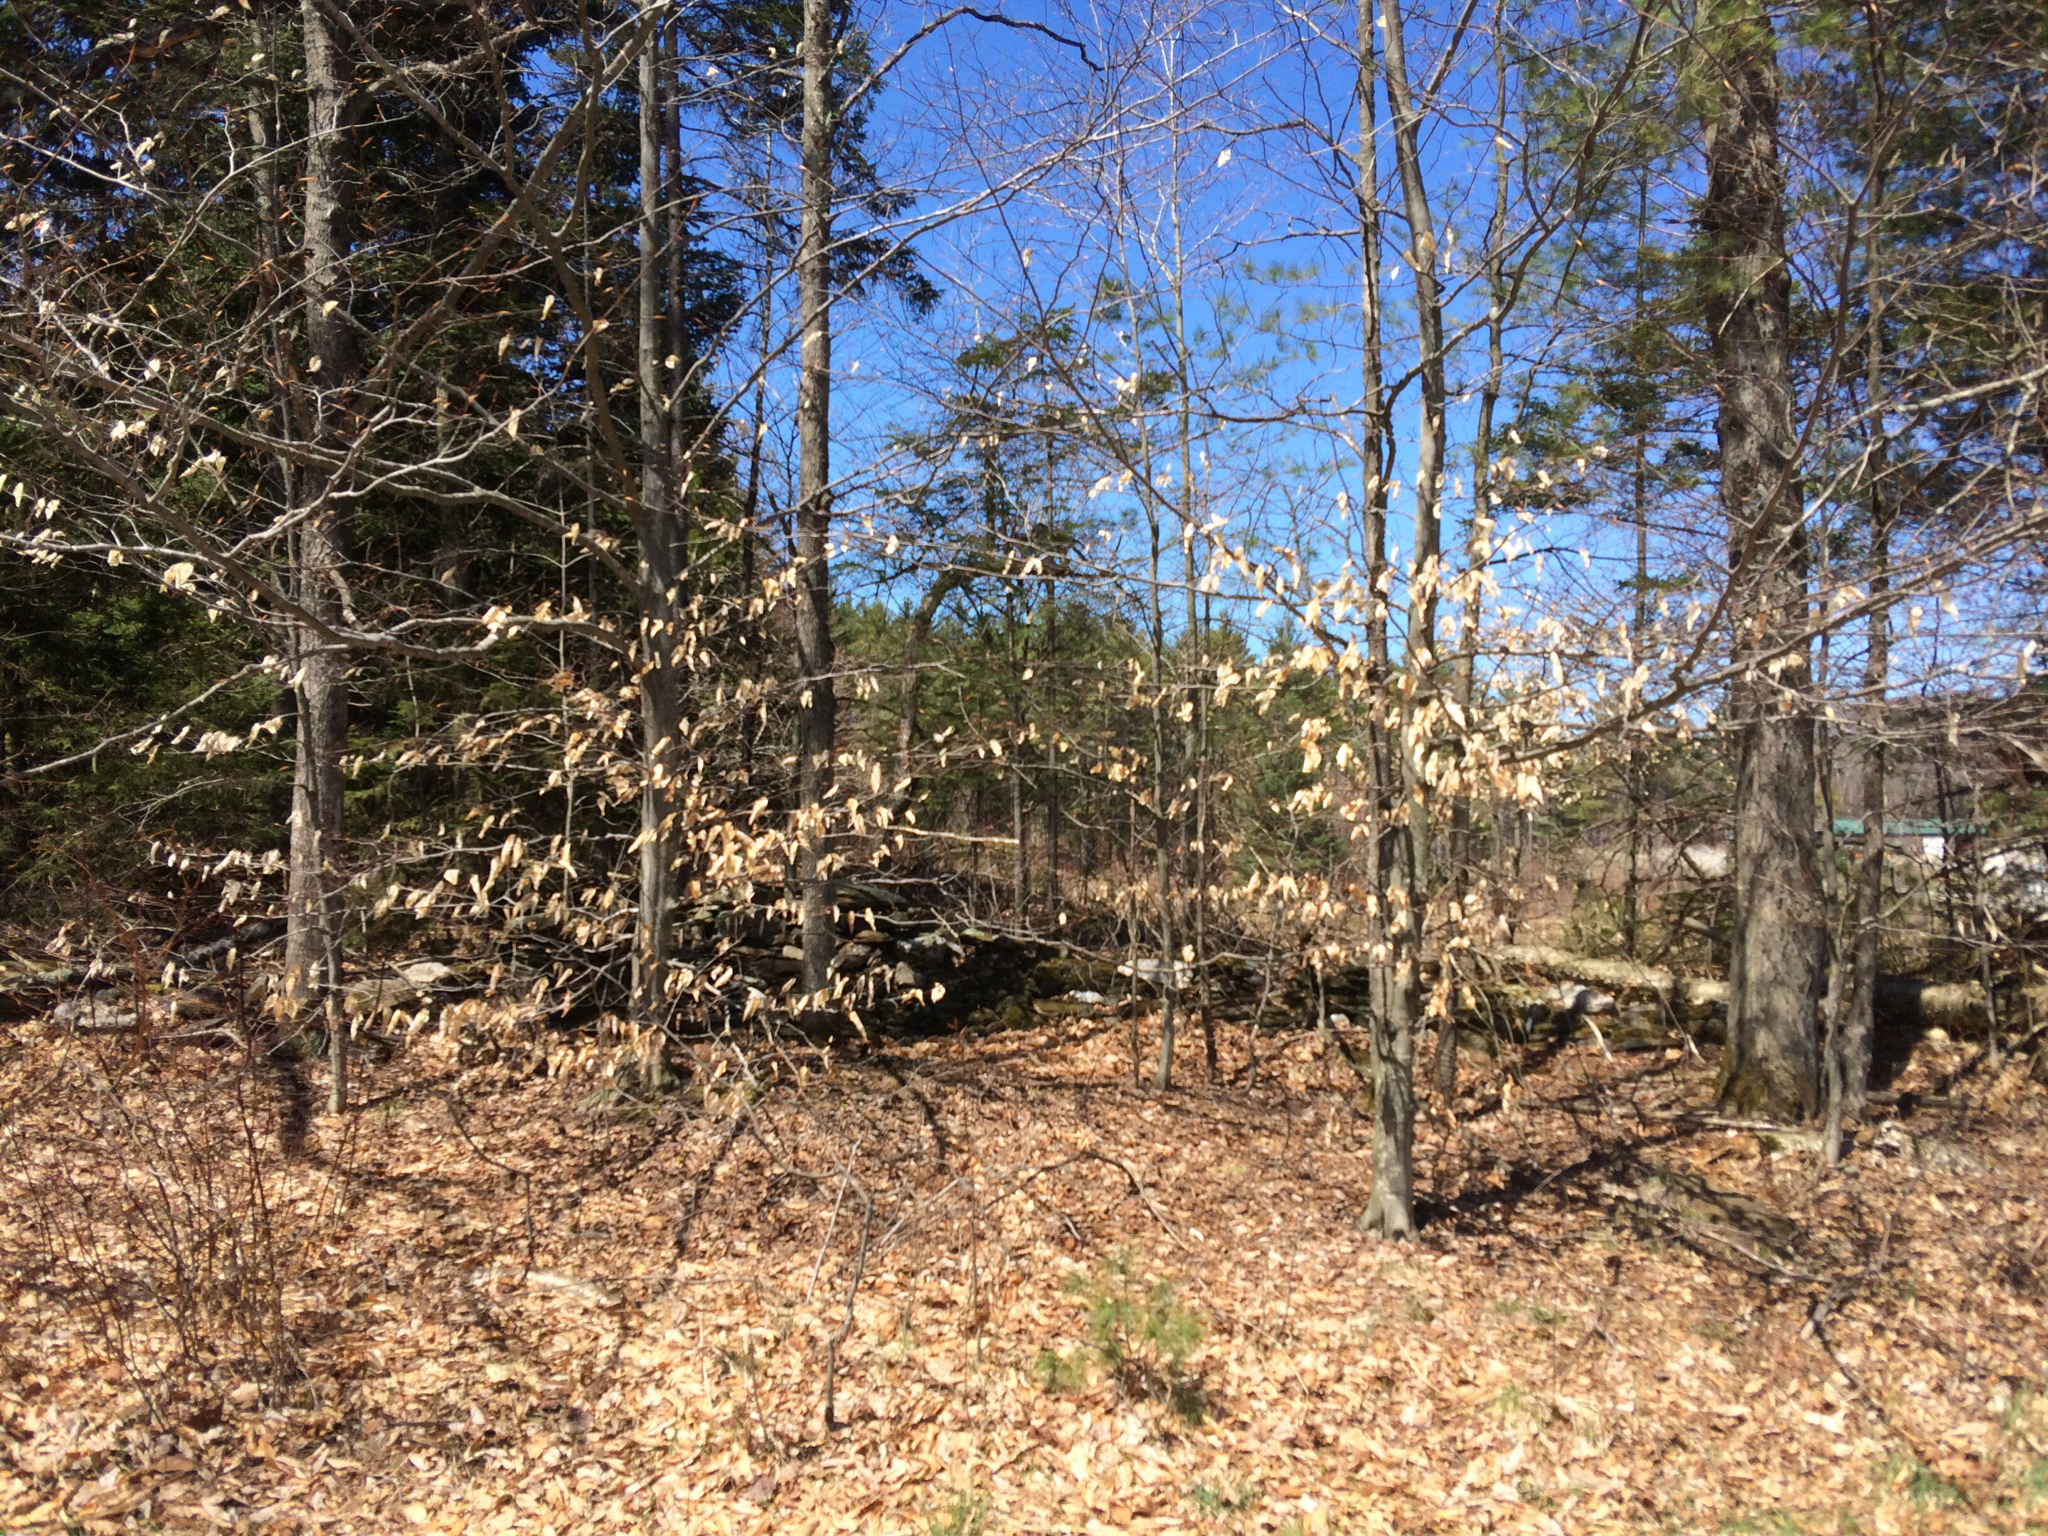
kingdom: Plantae
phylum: Tracheophyta
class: Magnoliopsida
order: Fagales
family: Fagaceae
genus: Fagus
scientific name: Fagus grandifolia
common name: American beech
